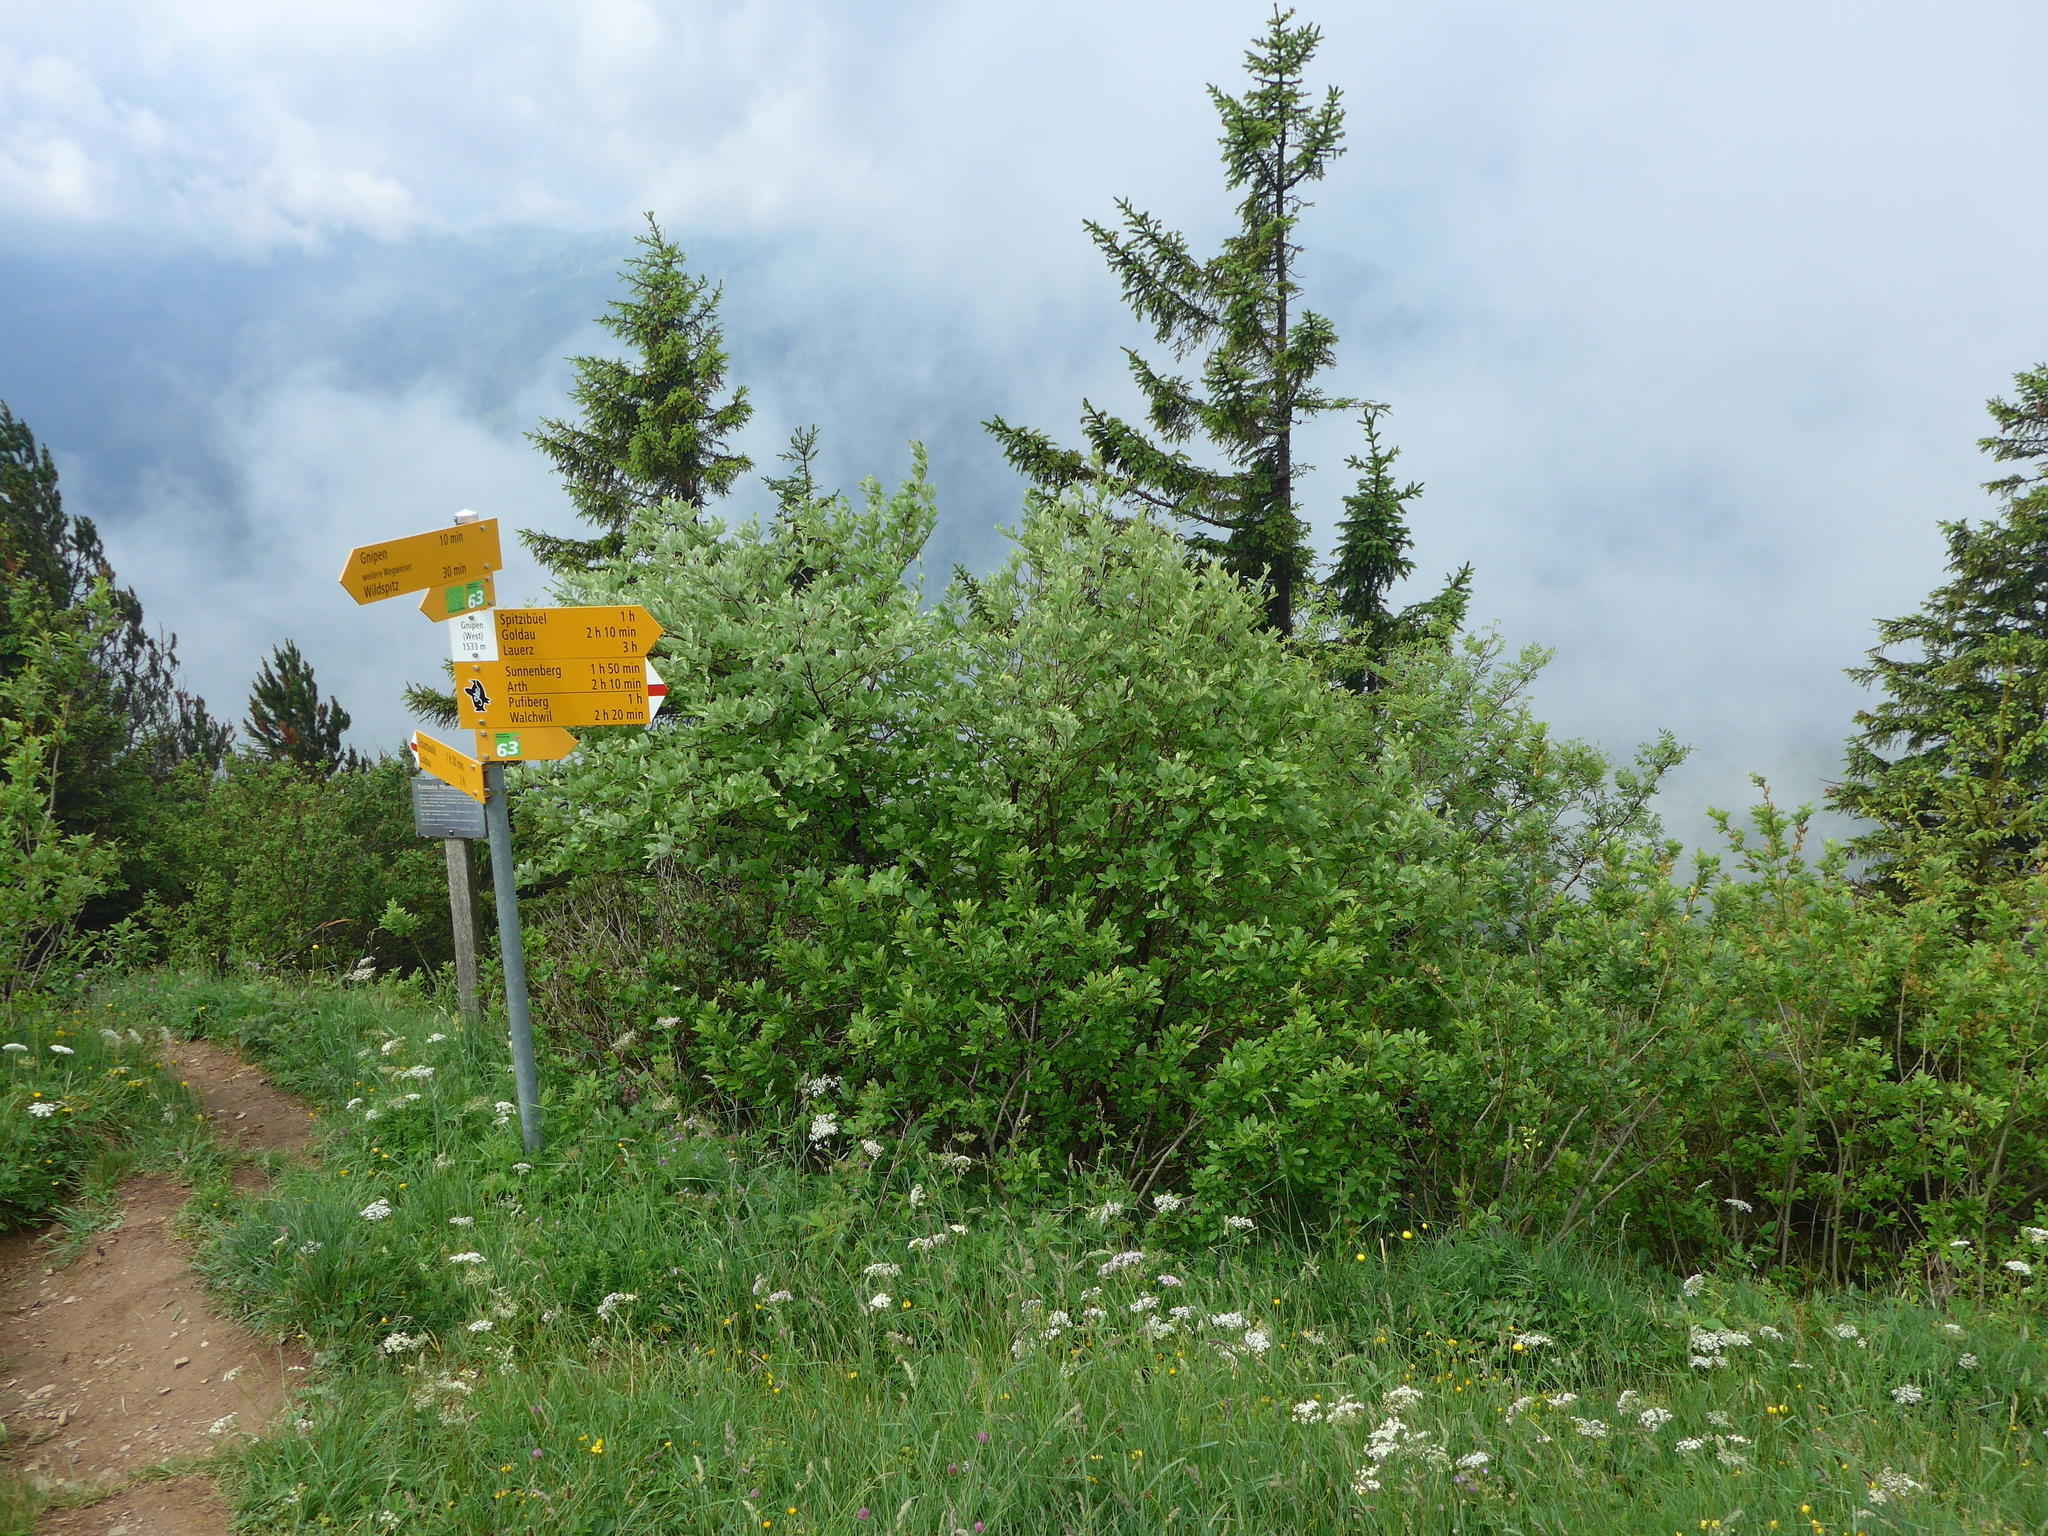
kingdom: Plantae
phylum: Tracheophyta
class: Pinopsida
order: Pinales
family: Pinaceae
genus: Picea
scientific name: Picea abies
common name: Norway spruce
